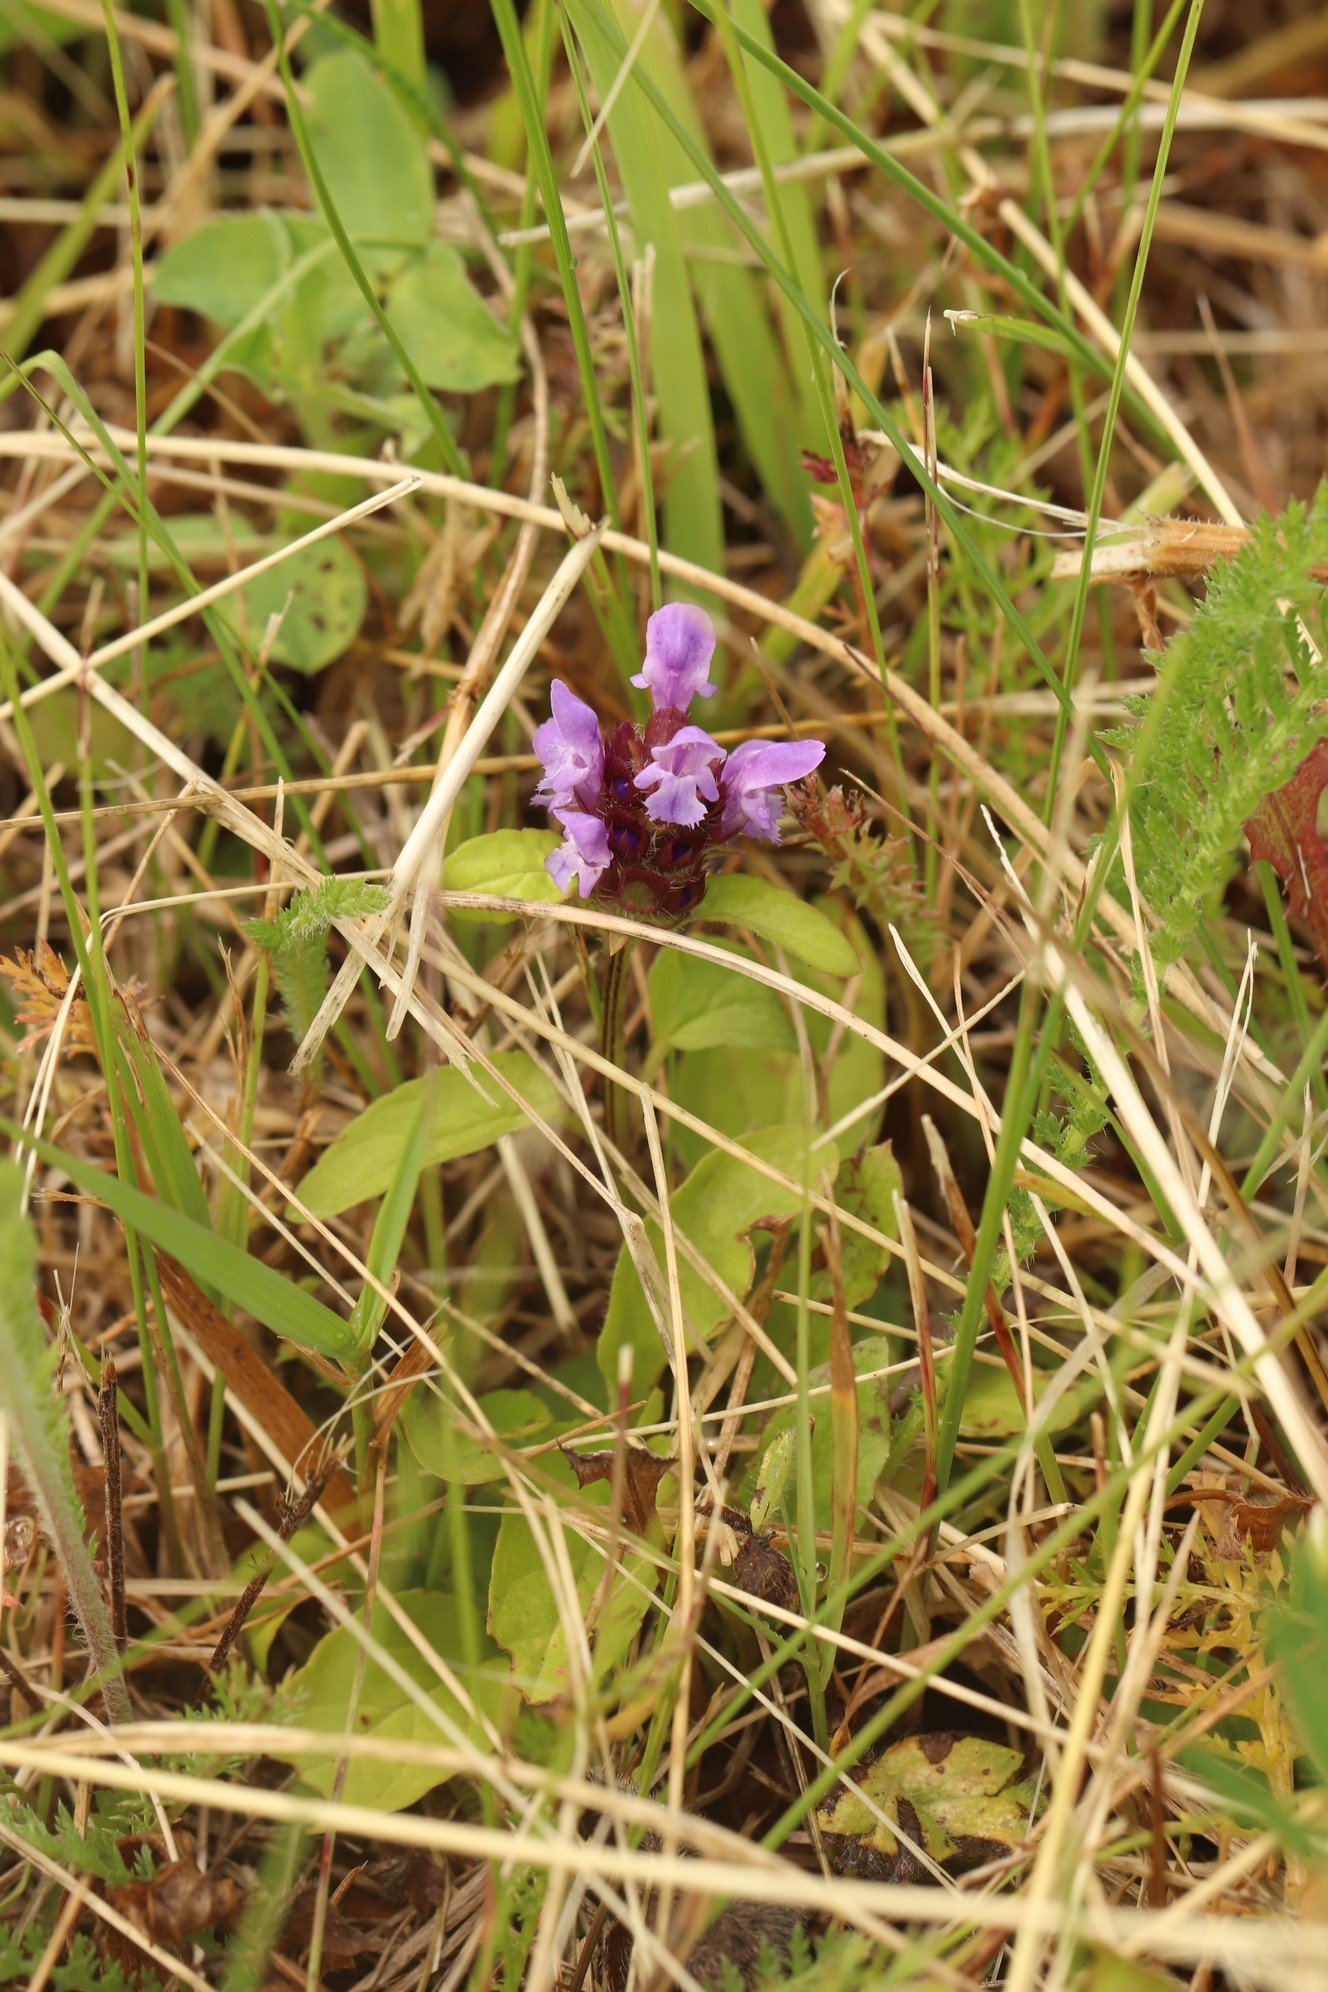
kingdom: Plantae
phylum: Tracheophyta
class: Magnoliopsida
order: Lamiales
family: Lamiaceae
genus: Prunella
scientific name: Prunella vulgaris
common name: Heal-all
